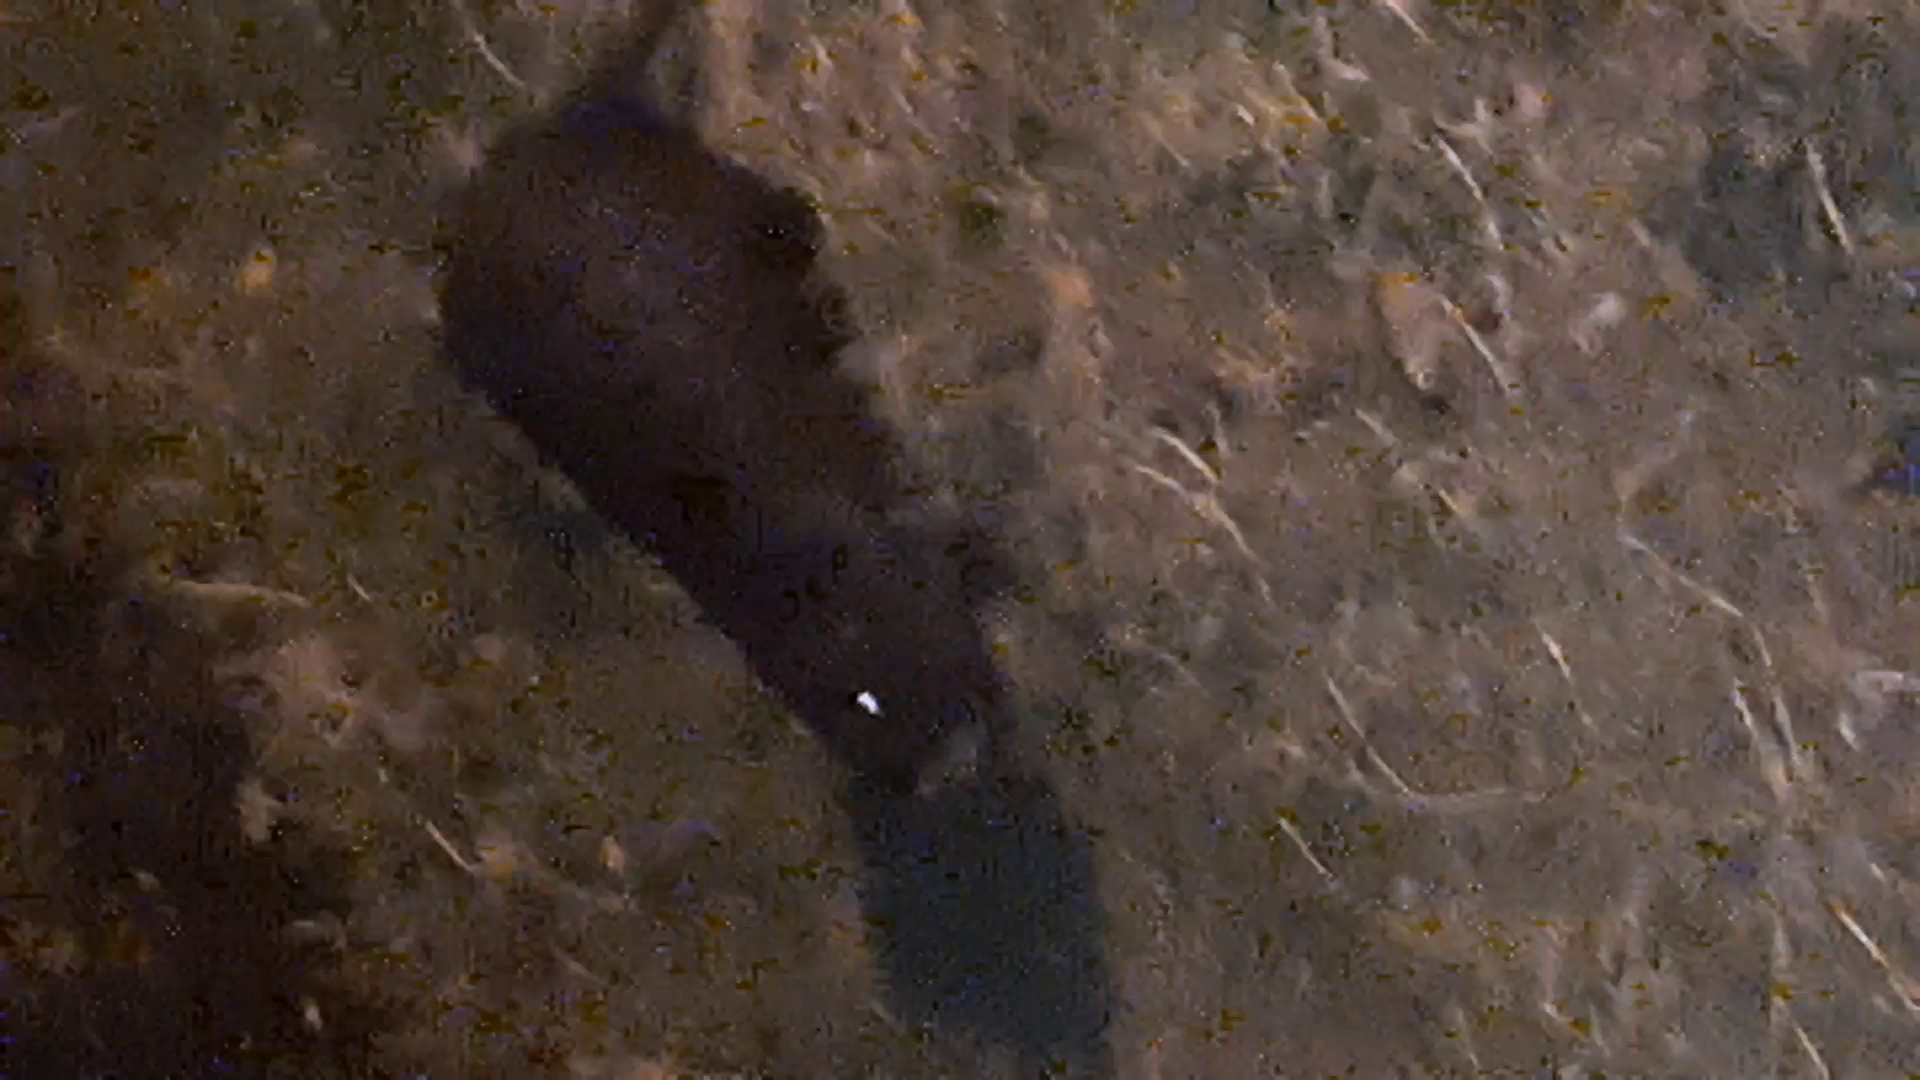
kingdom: Animalia
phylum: Chordata
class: Mammalia
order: Rodentia
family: Myocastoridae
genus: Myocastor
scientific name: Myocastor coypus
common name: Coypu
